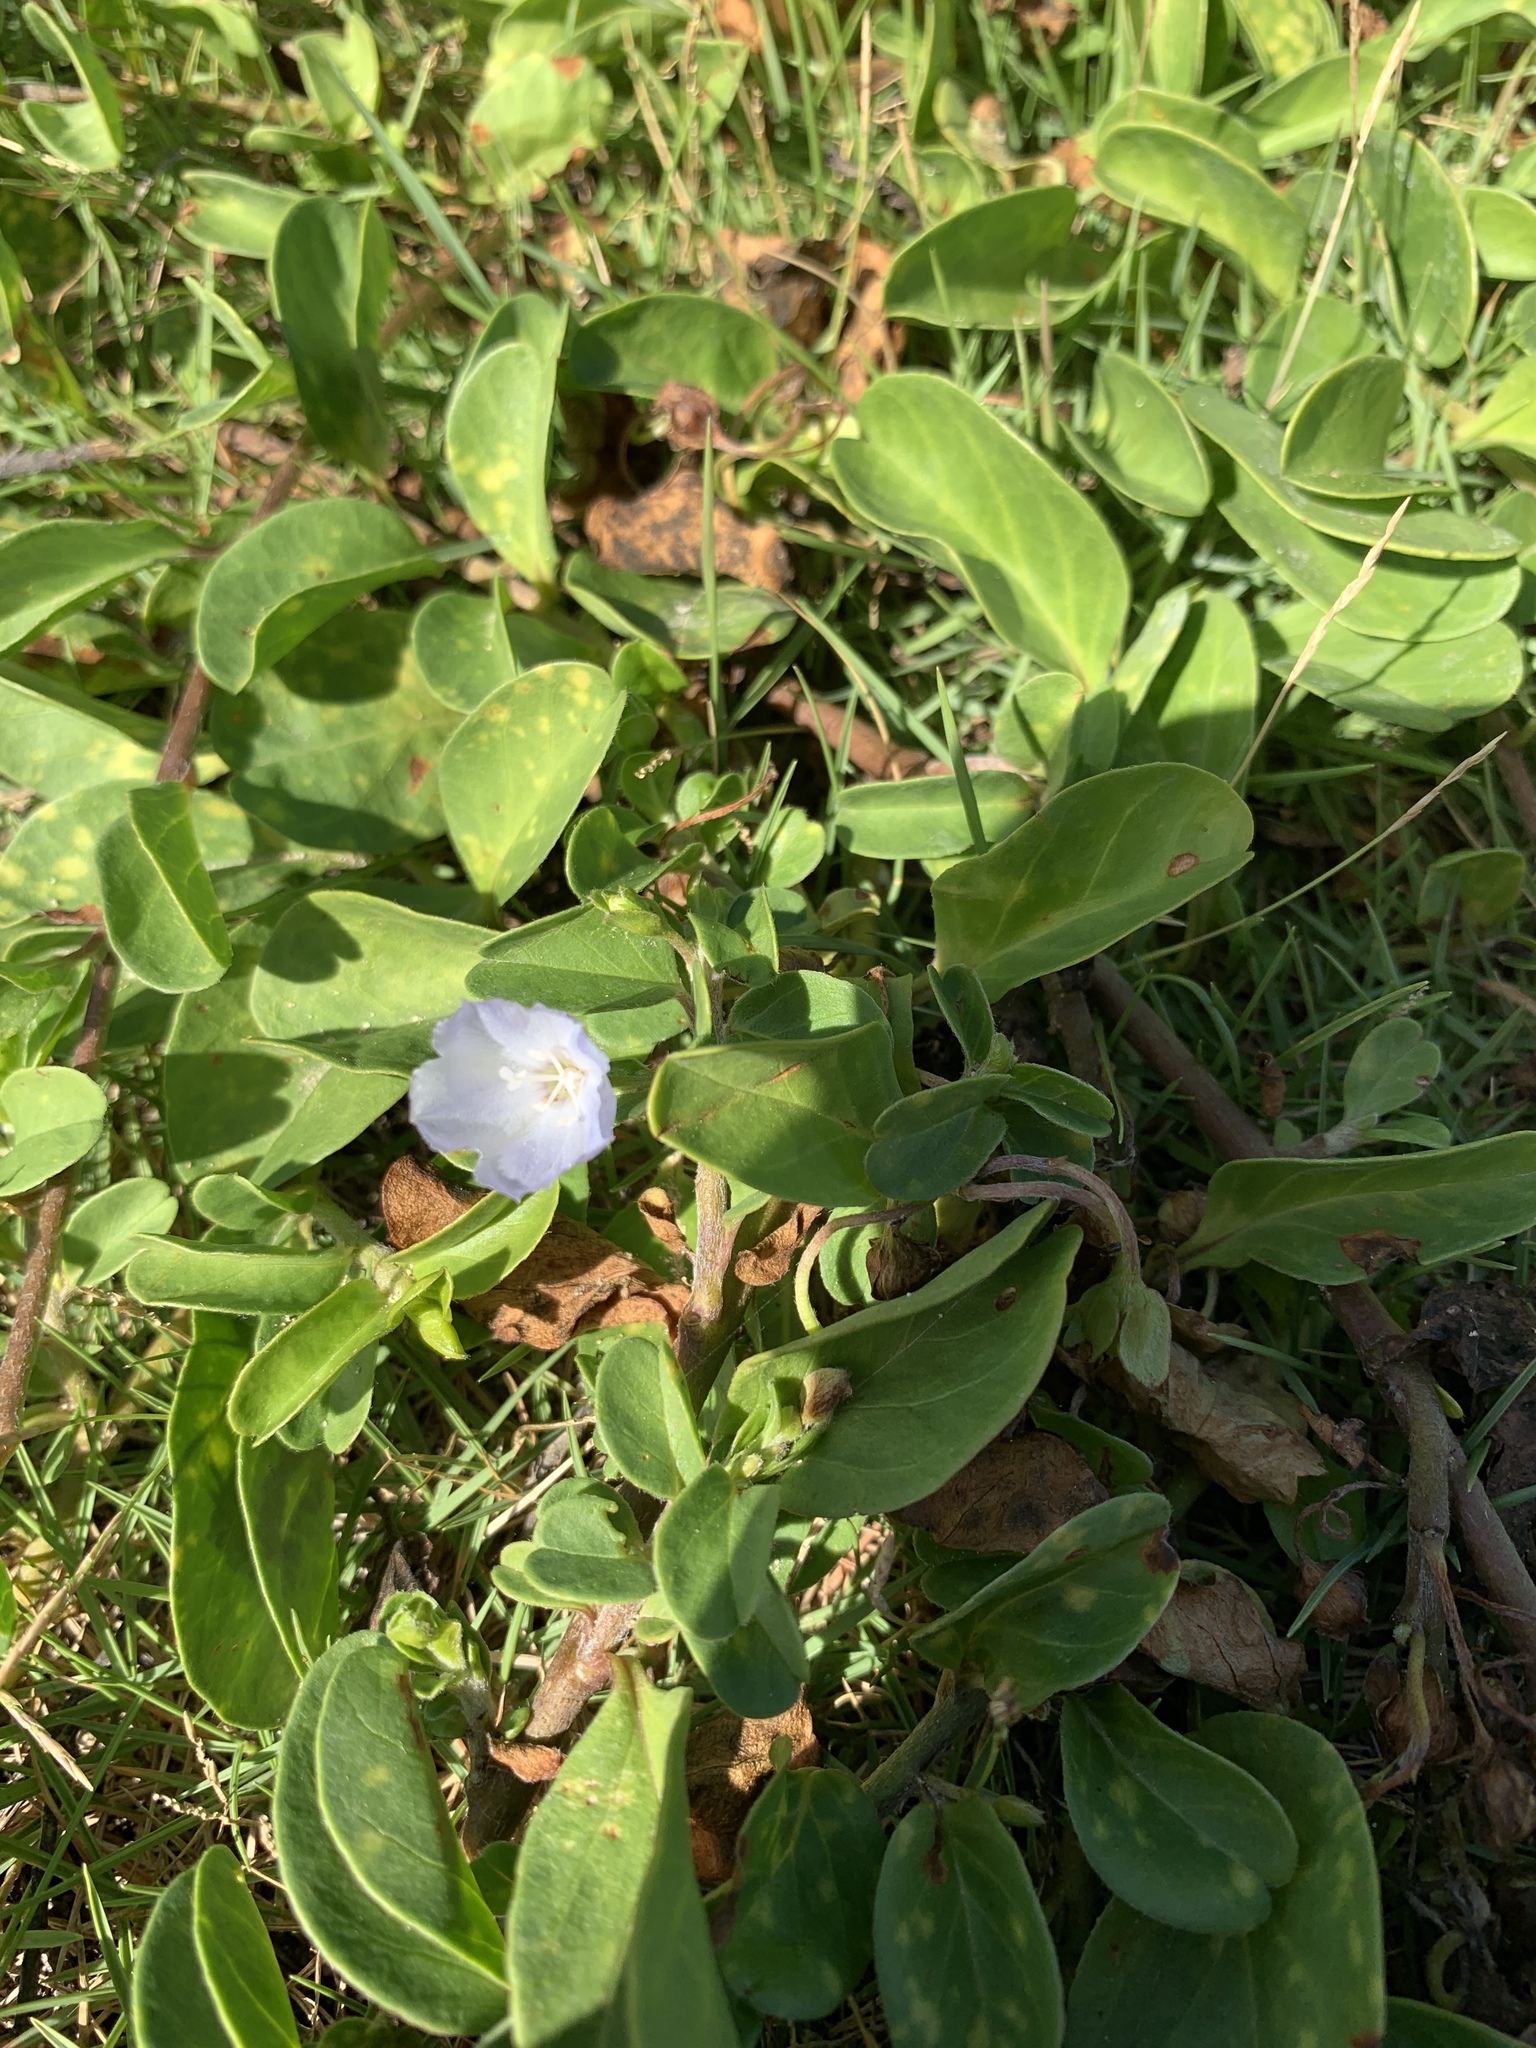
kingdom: Plantae
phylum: Tracheophyta
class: Magnoliopsida
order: Solanales
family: Convolvulaceae
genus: Jacquemontia
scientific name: Jacquemontia sandwicensis
